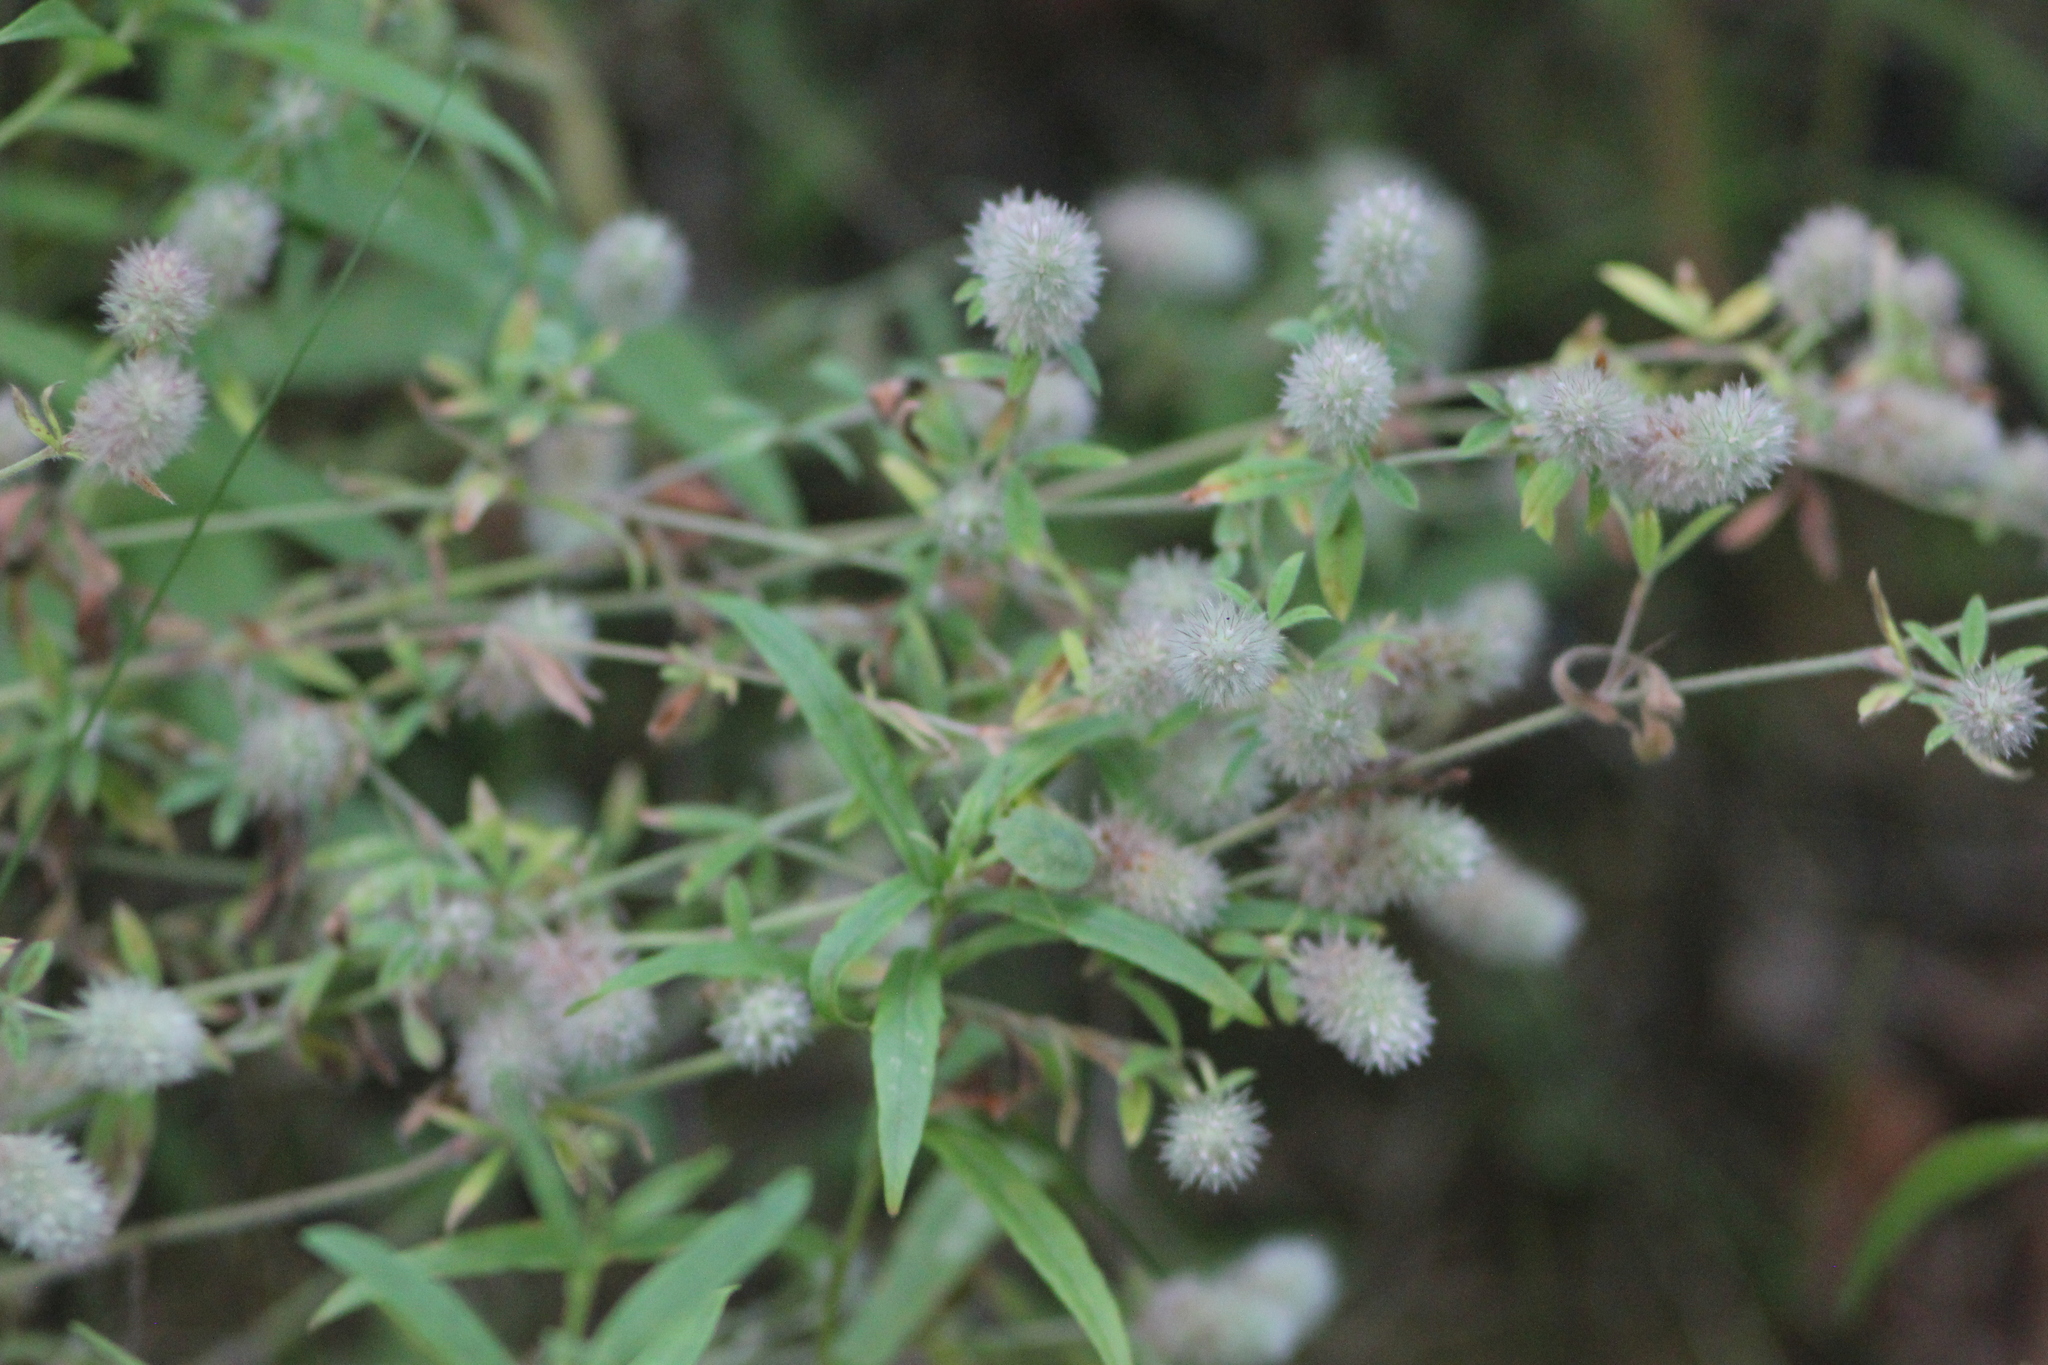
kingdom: Plantae
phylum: Tracheophyta
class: Magnoliopsida
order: Fabales
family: Fabaceae
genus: Trifolium
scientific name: Trifolium arvense
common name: Hare's-foot clover
